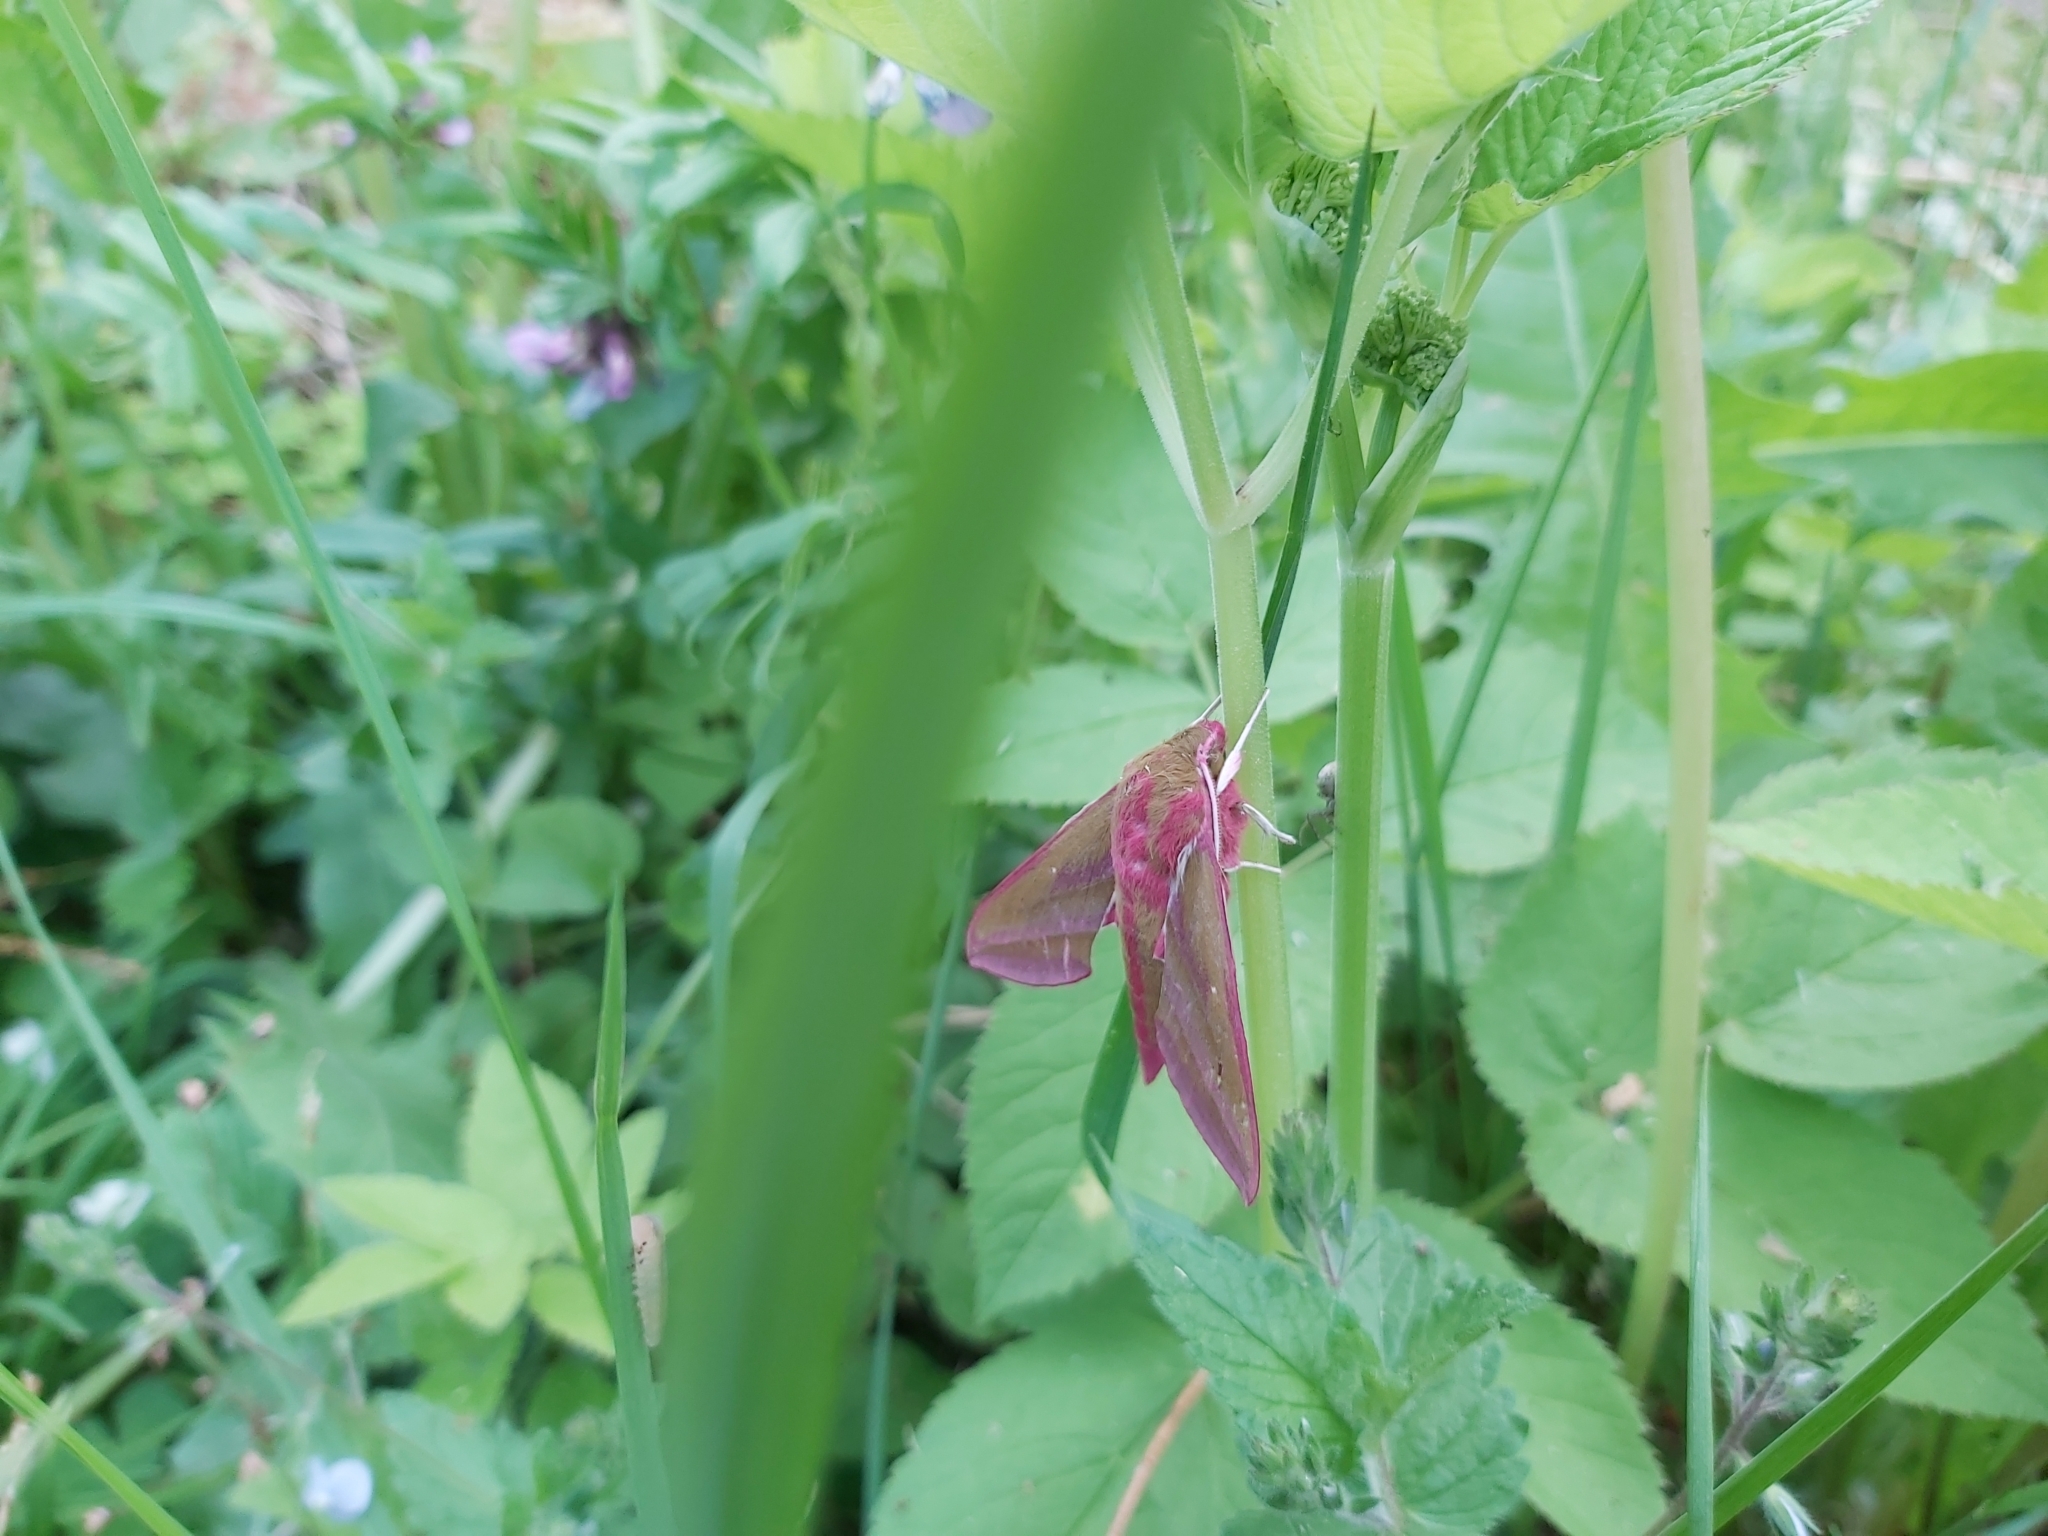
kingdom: Animalia
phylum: Arthropoda
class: Insecta
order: Lepidoptera
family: Sphingidae
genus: Deilephila
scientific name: Deilephila elpenor
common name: Elephant hawk-moth
